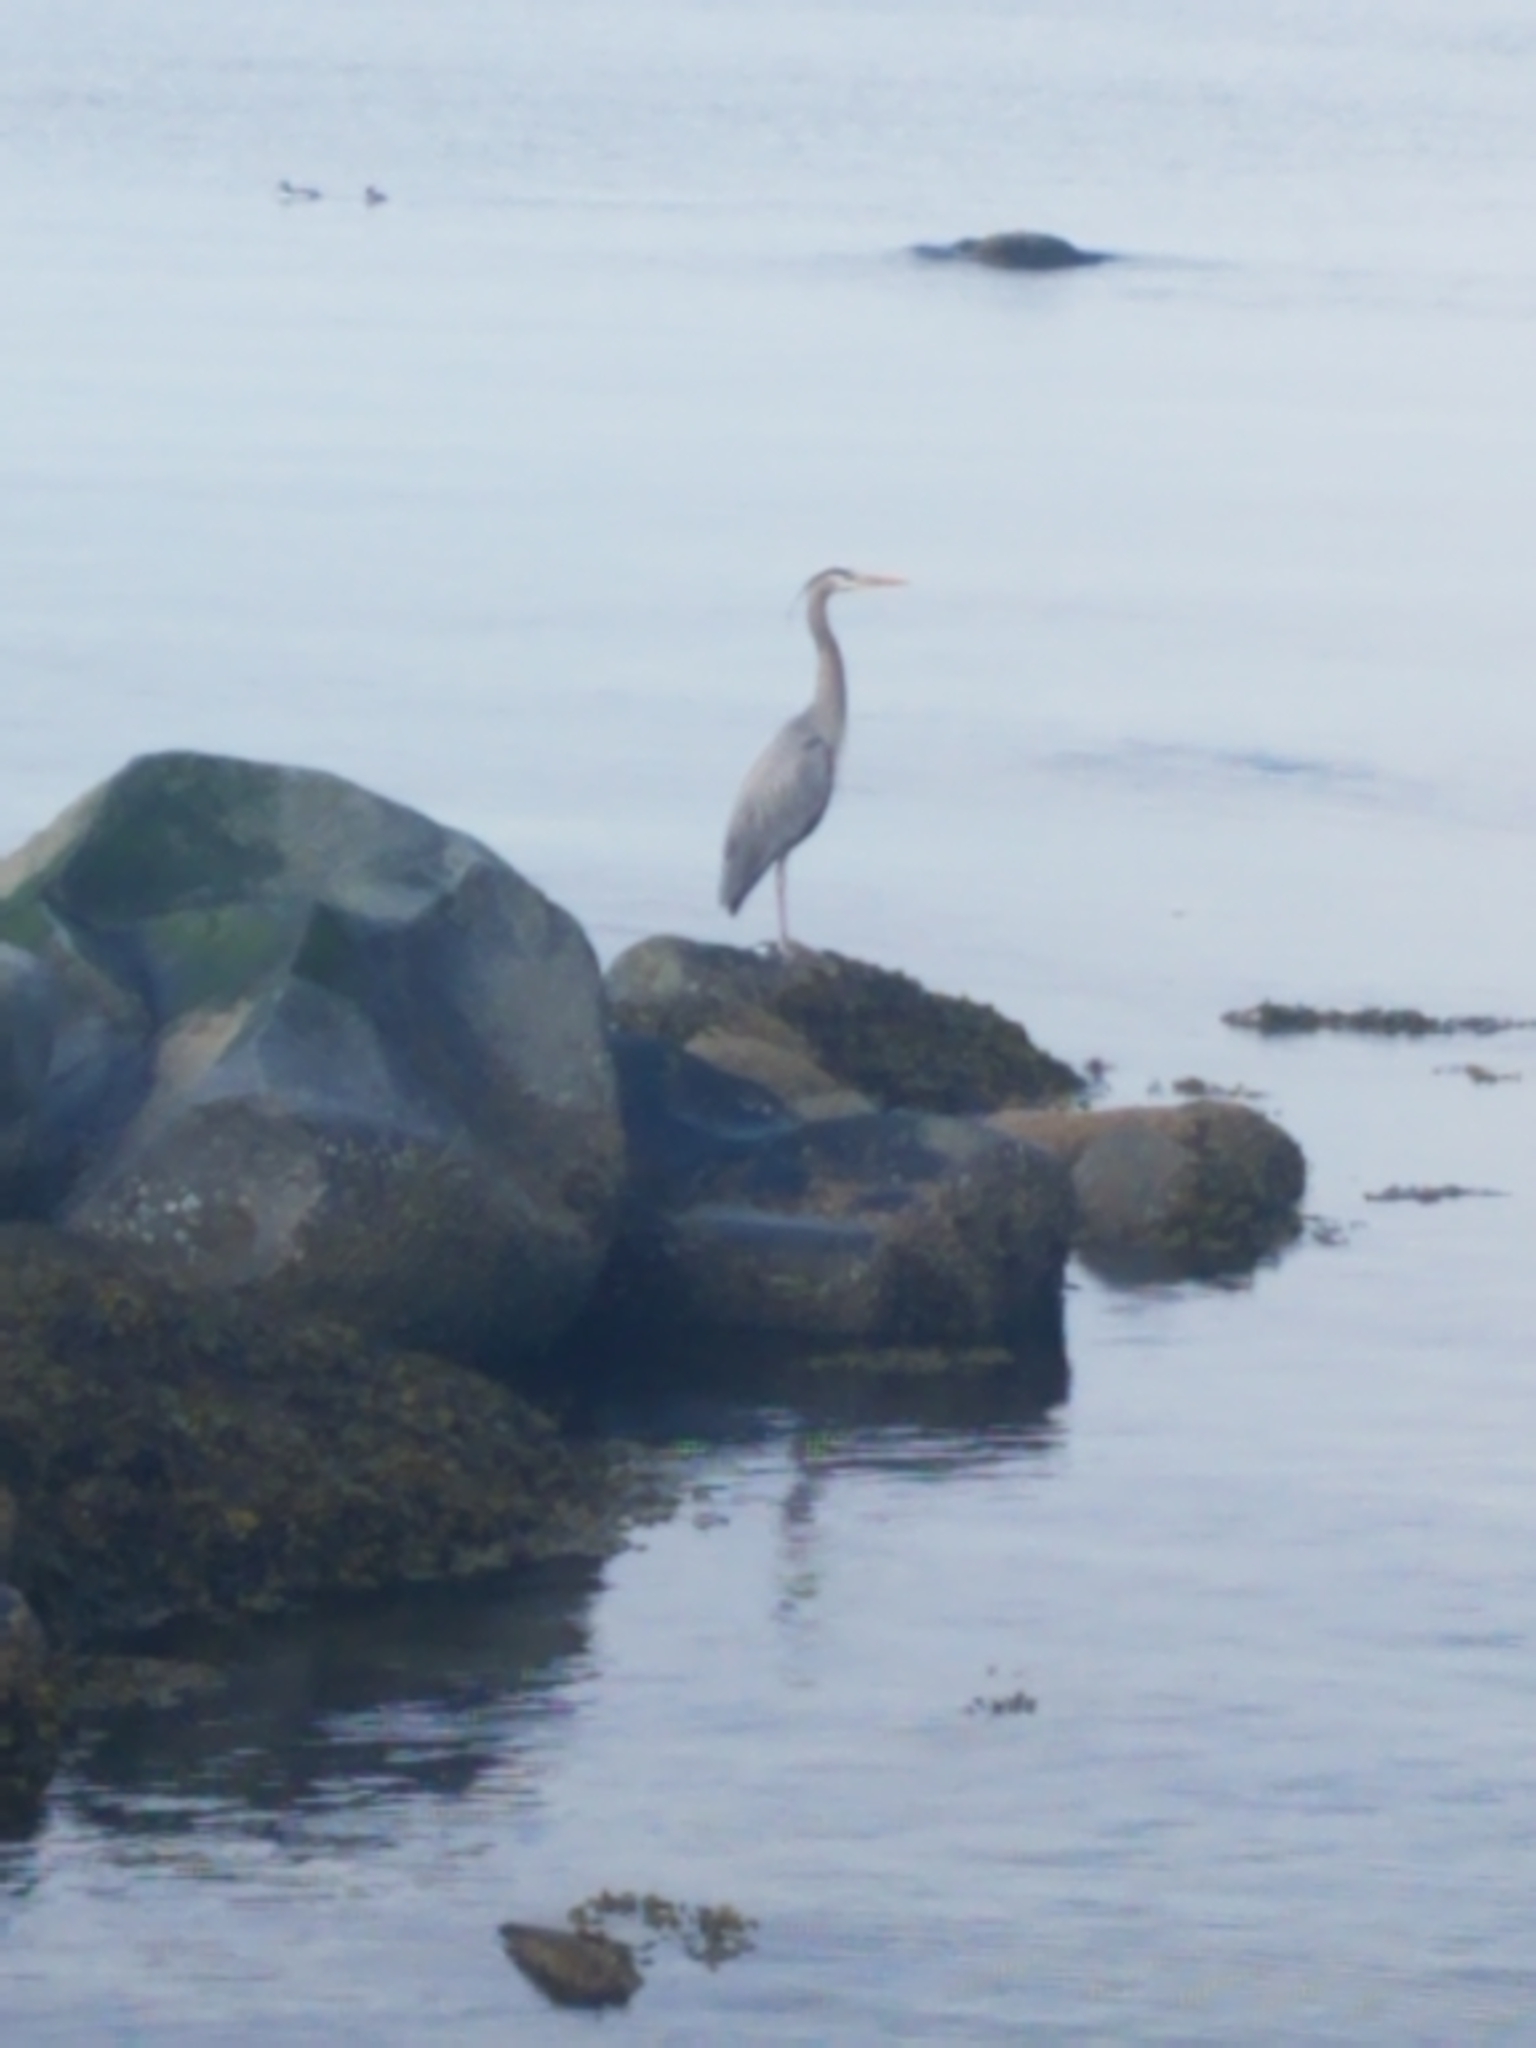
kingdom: Animalia
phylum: Chordata
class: Aves
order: Pelecaniformes
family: Ardeidae
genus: Ardea
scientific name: Ardea herodias
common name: Great blue heron
